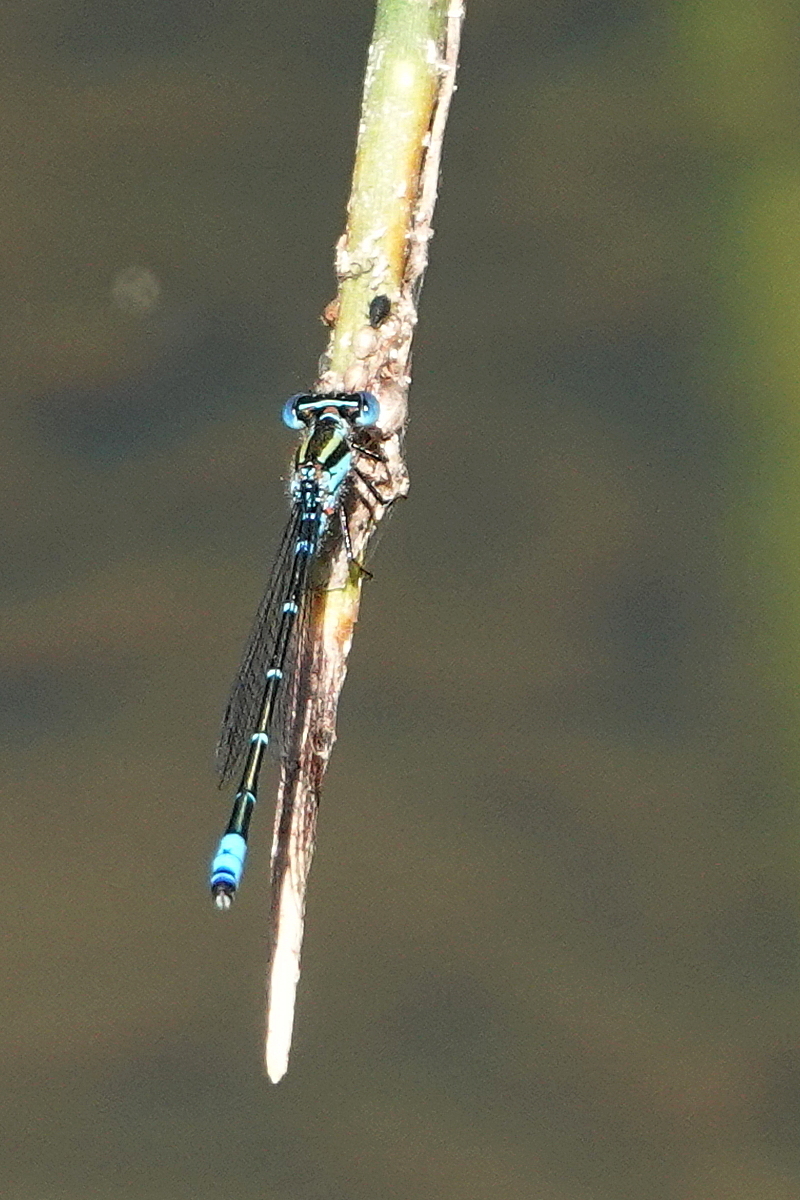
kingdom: Animalia
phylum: Arthropoda
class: Insecta
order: Odonata
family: Coenagrionidae
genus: Austroagrion
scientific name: Austroagrion watsoni
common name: Eastern billabongfly
